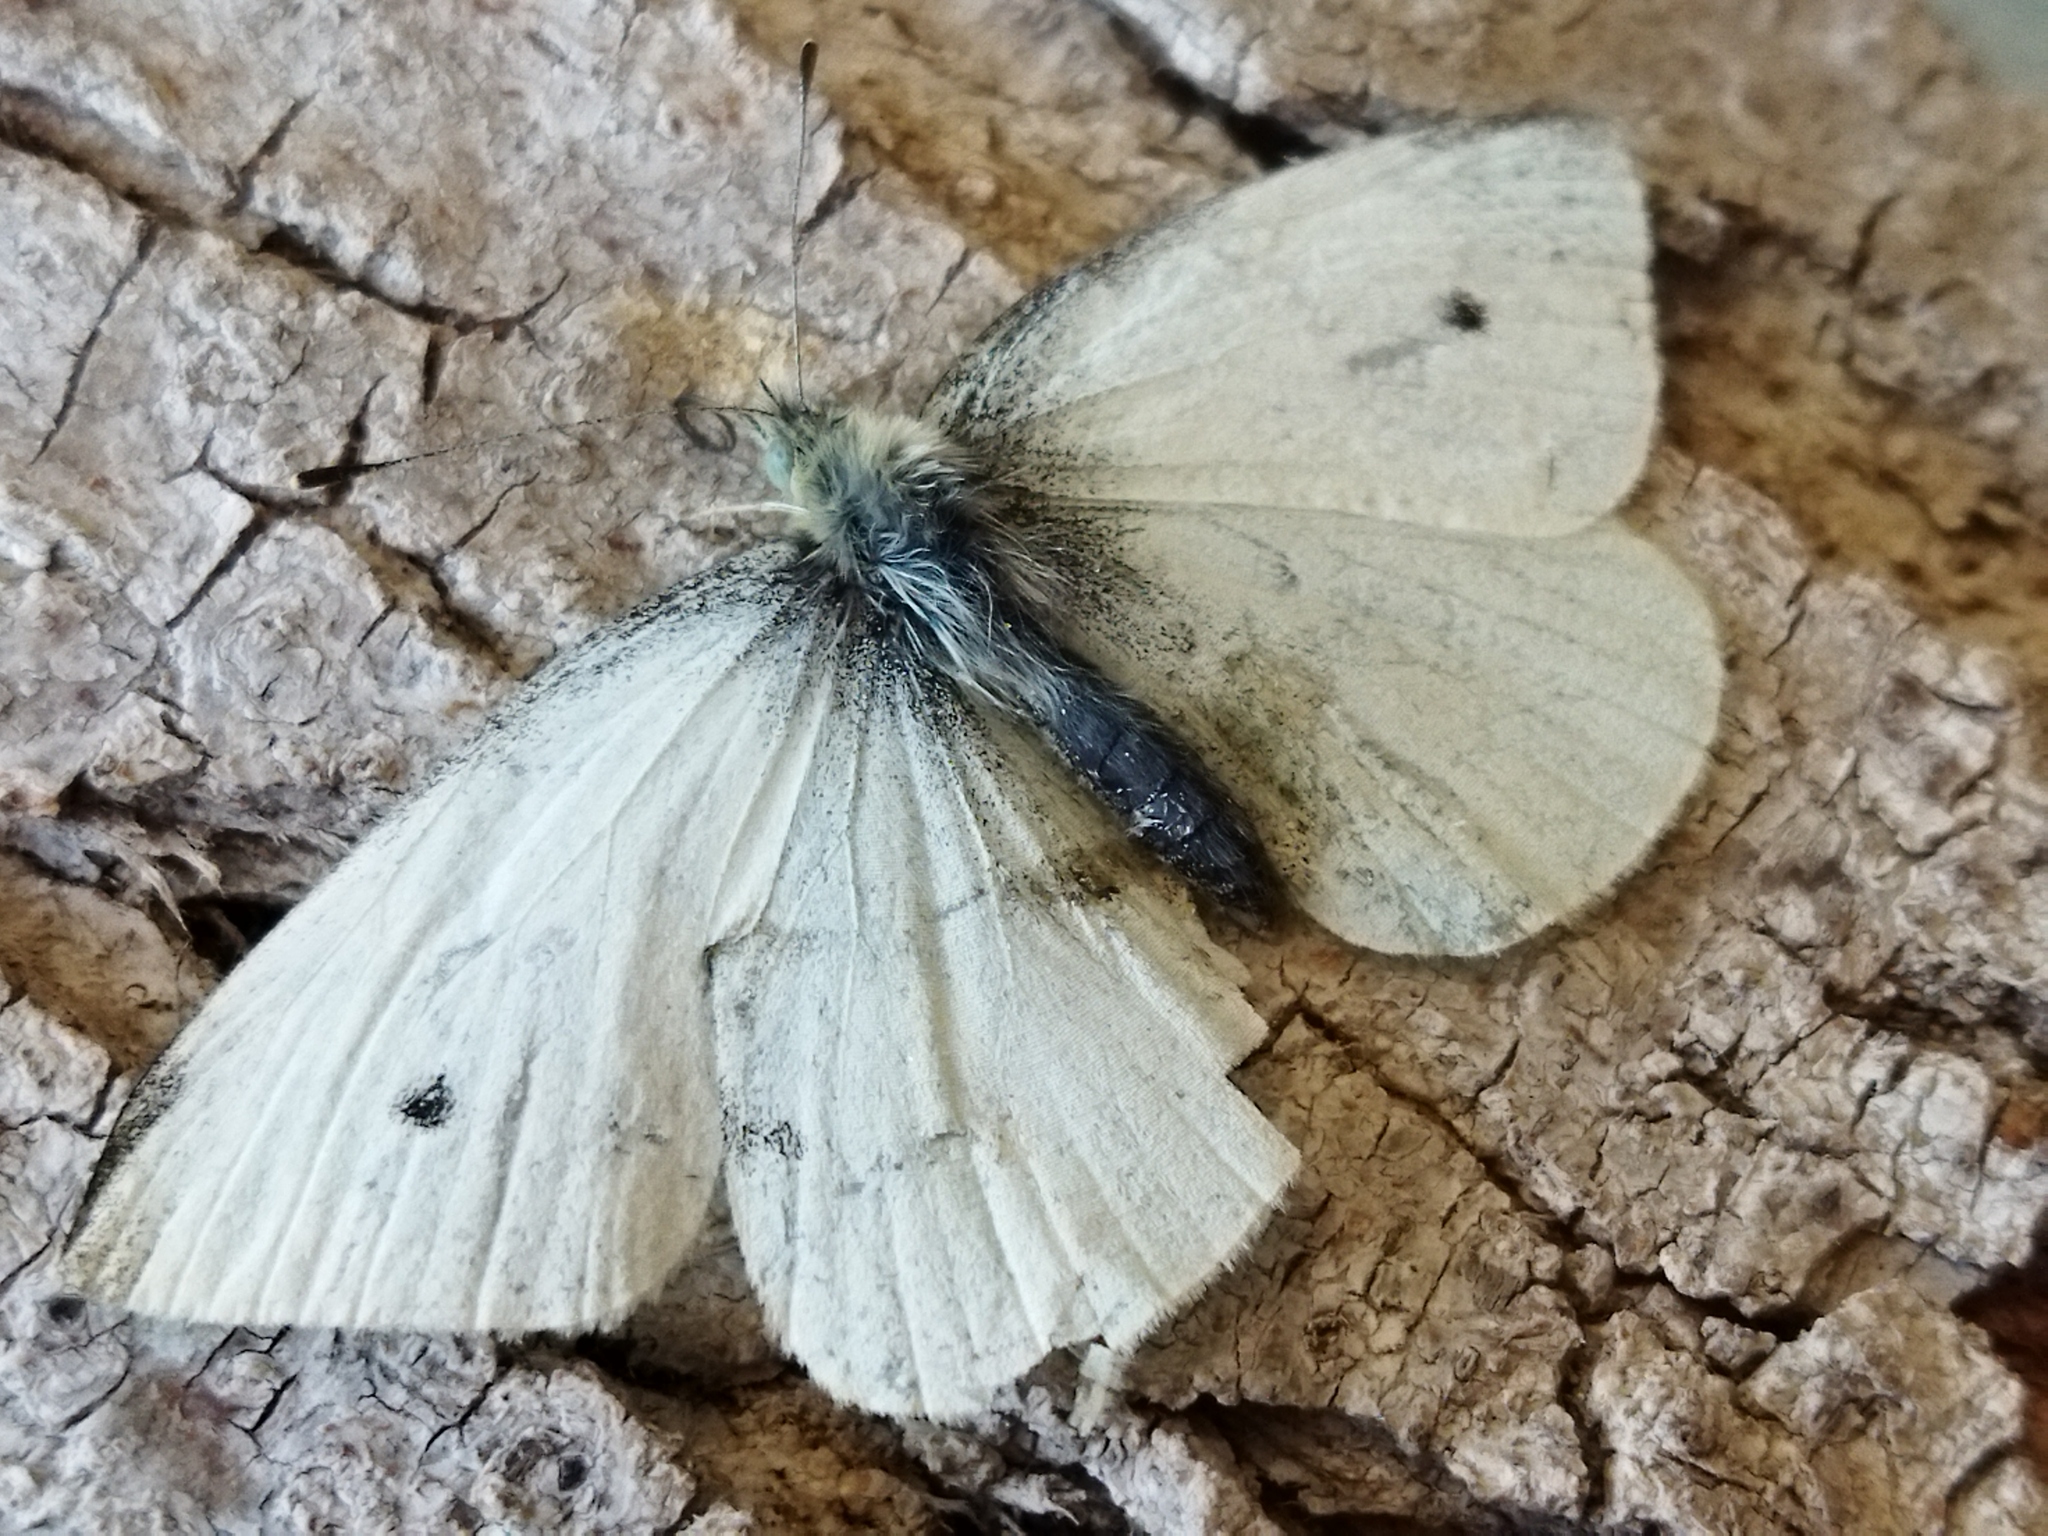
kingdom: Animalia
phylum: Arthropoda
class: Insecta
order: Lepidoptera
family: Pieridae
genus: Pieris
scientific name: Pieris rapae
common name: Small white
